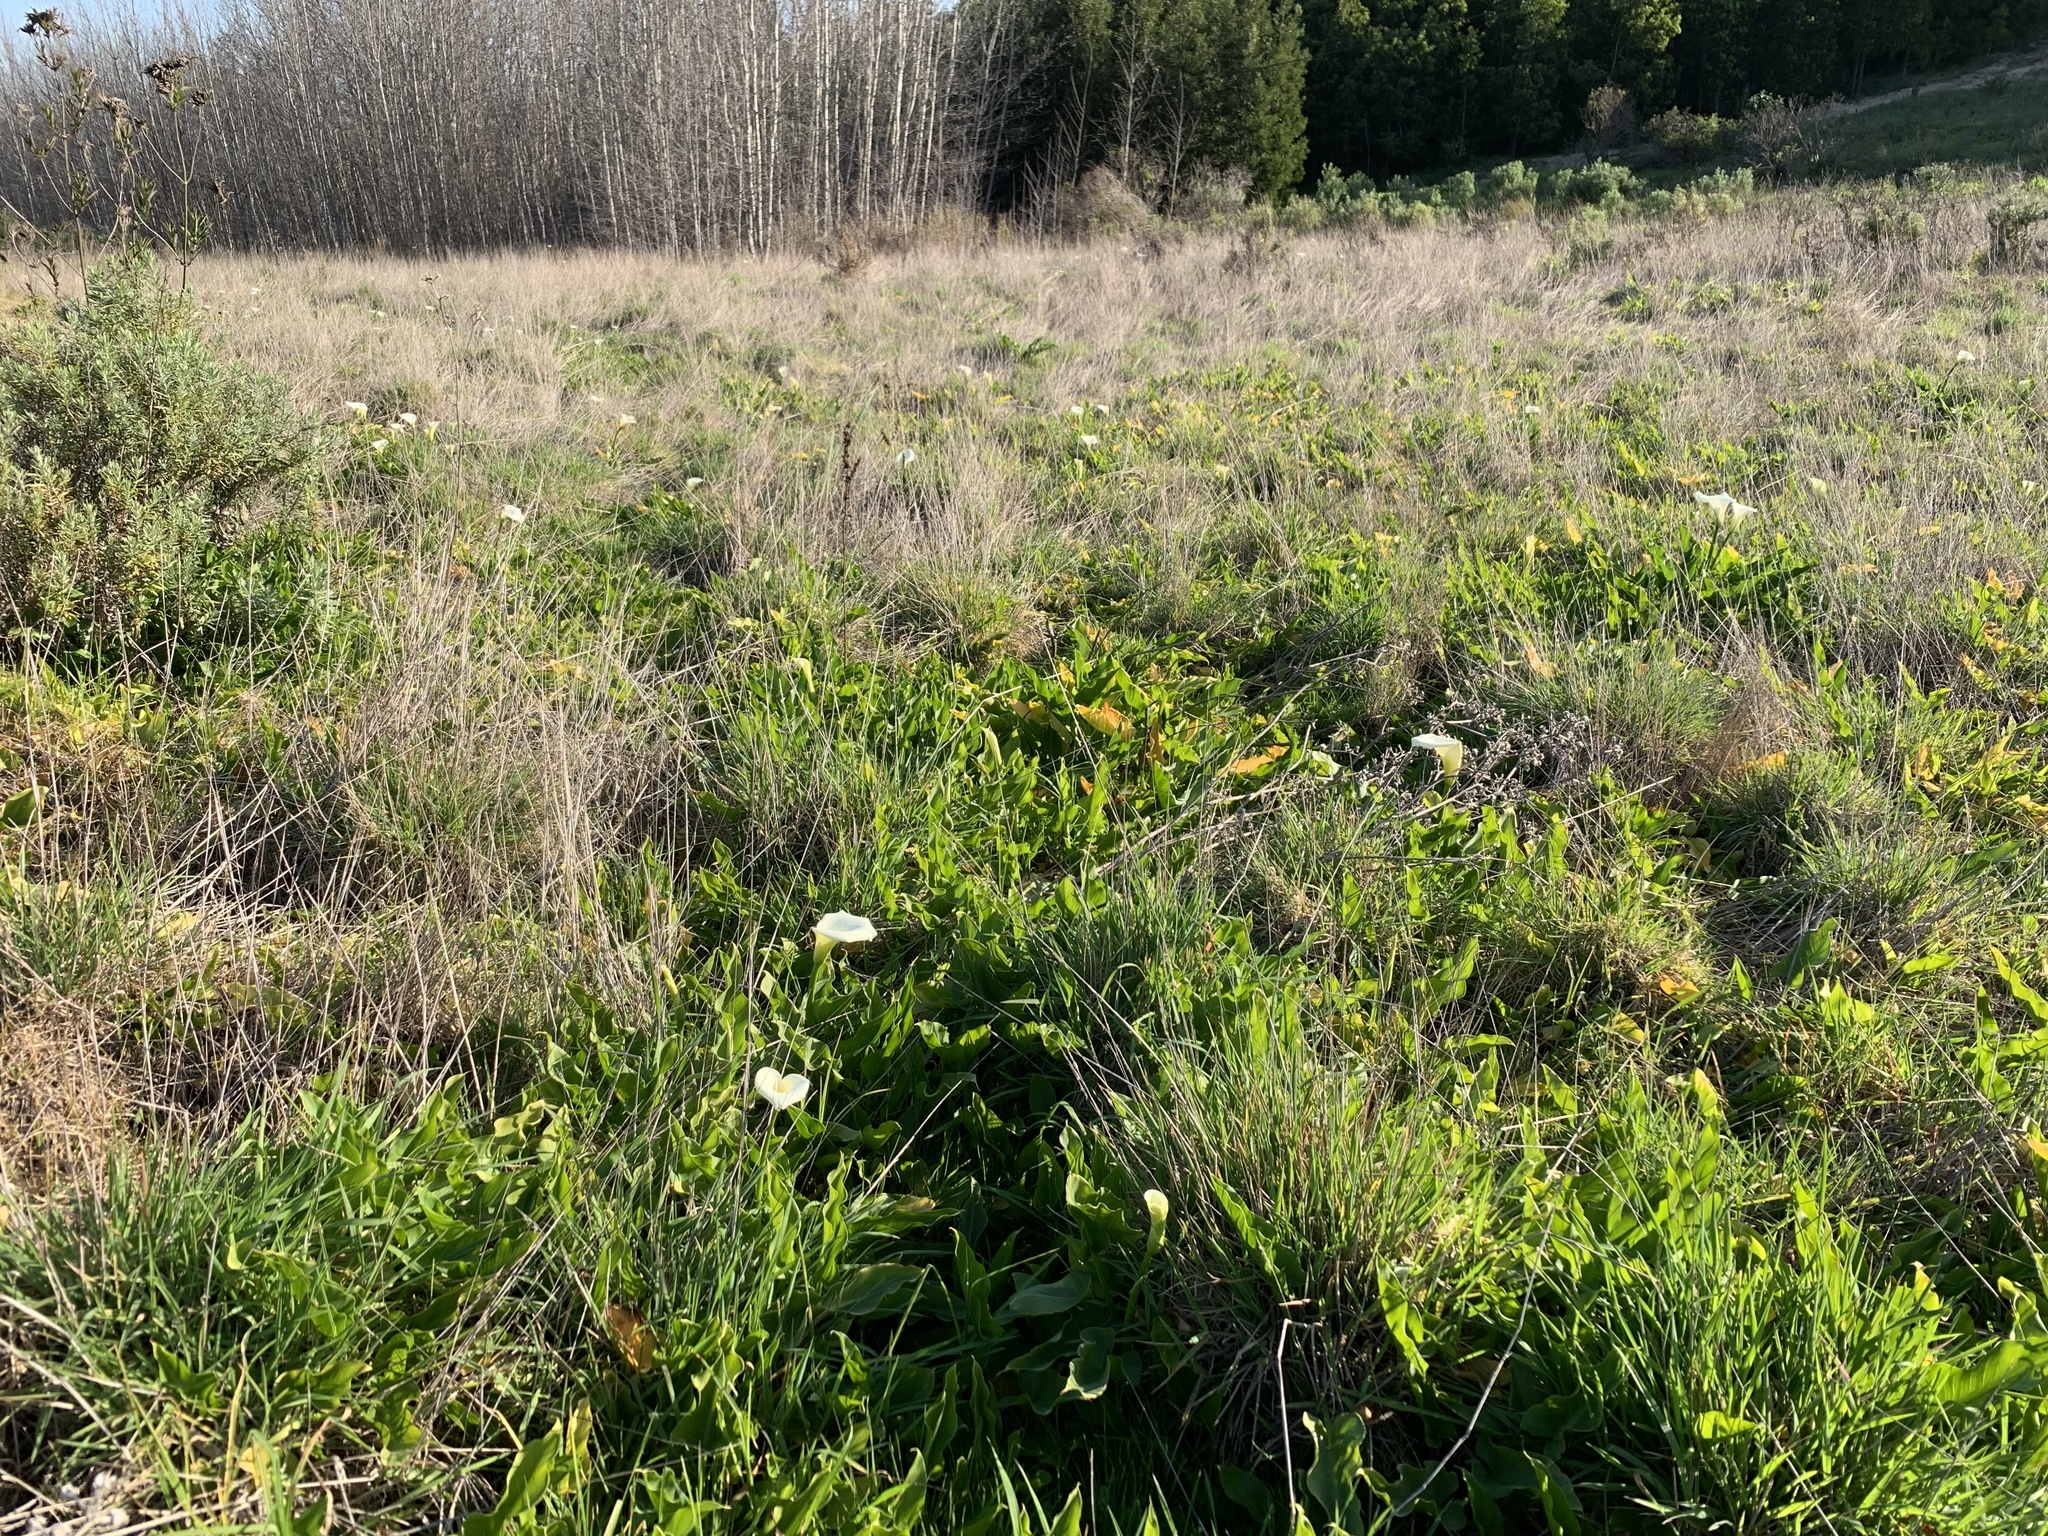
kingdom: Plantae
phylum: Tracheophyta
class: Liliopsida
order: Alismatales
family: Araceae
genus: Zantedeschia
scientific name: Zantedeschia aethiopica
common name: Altar-lily
